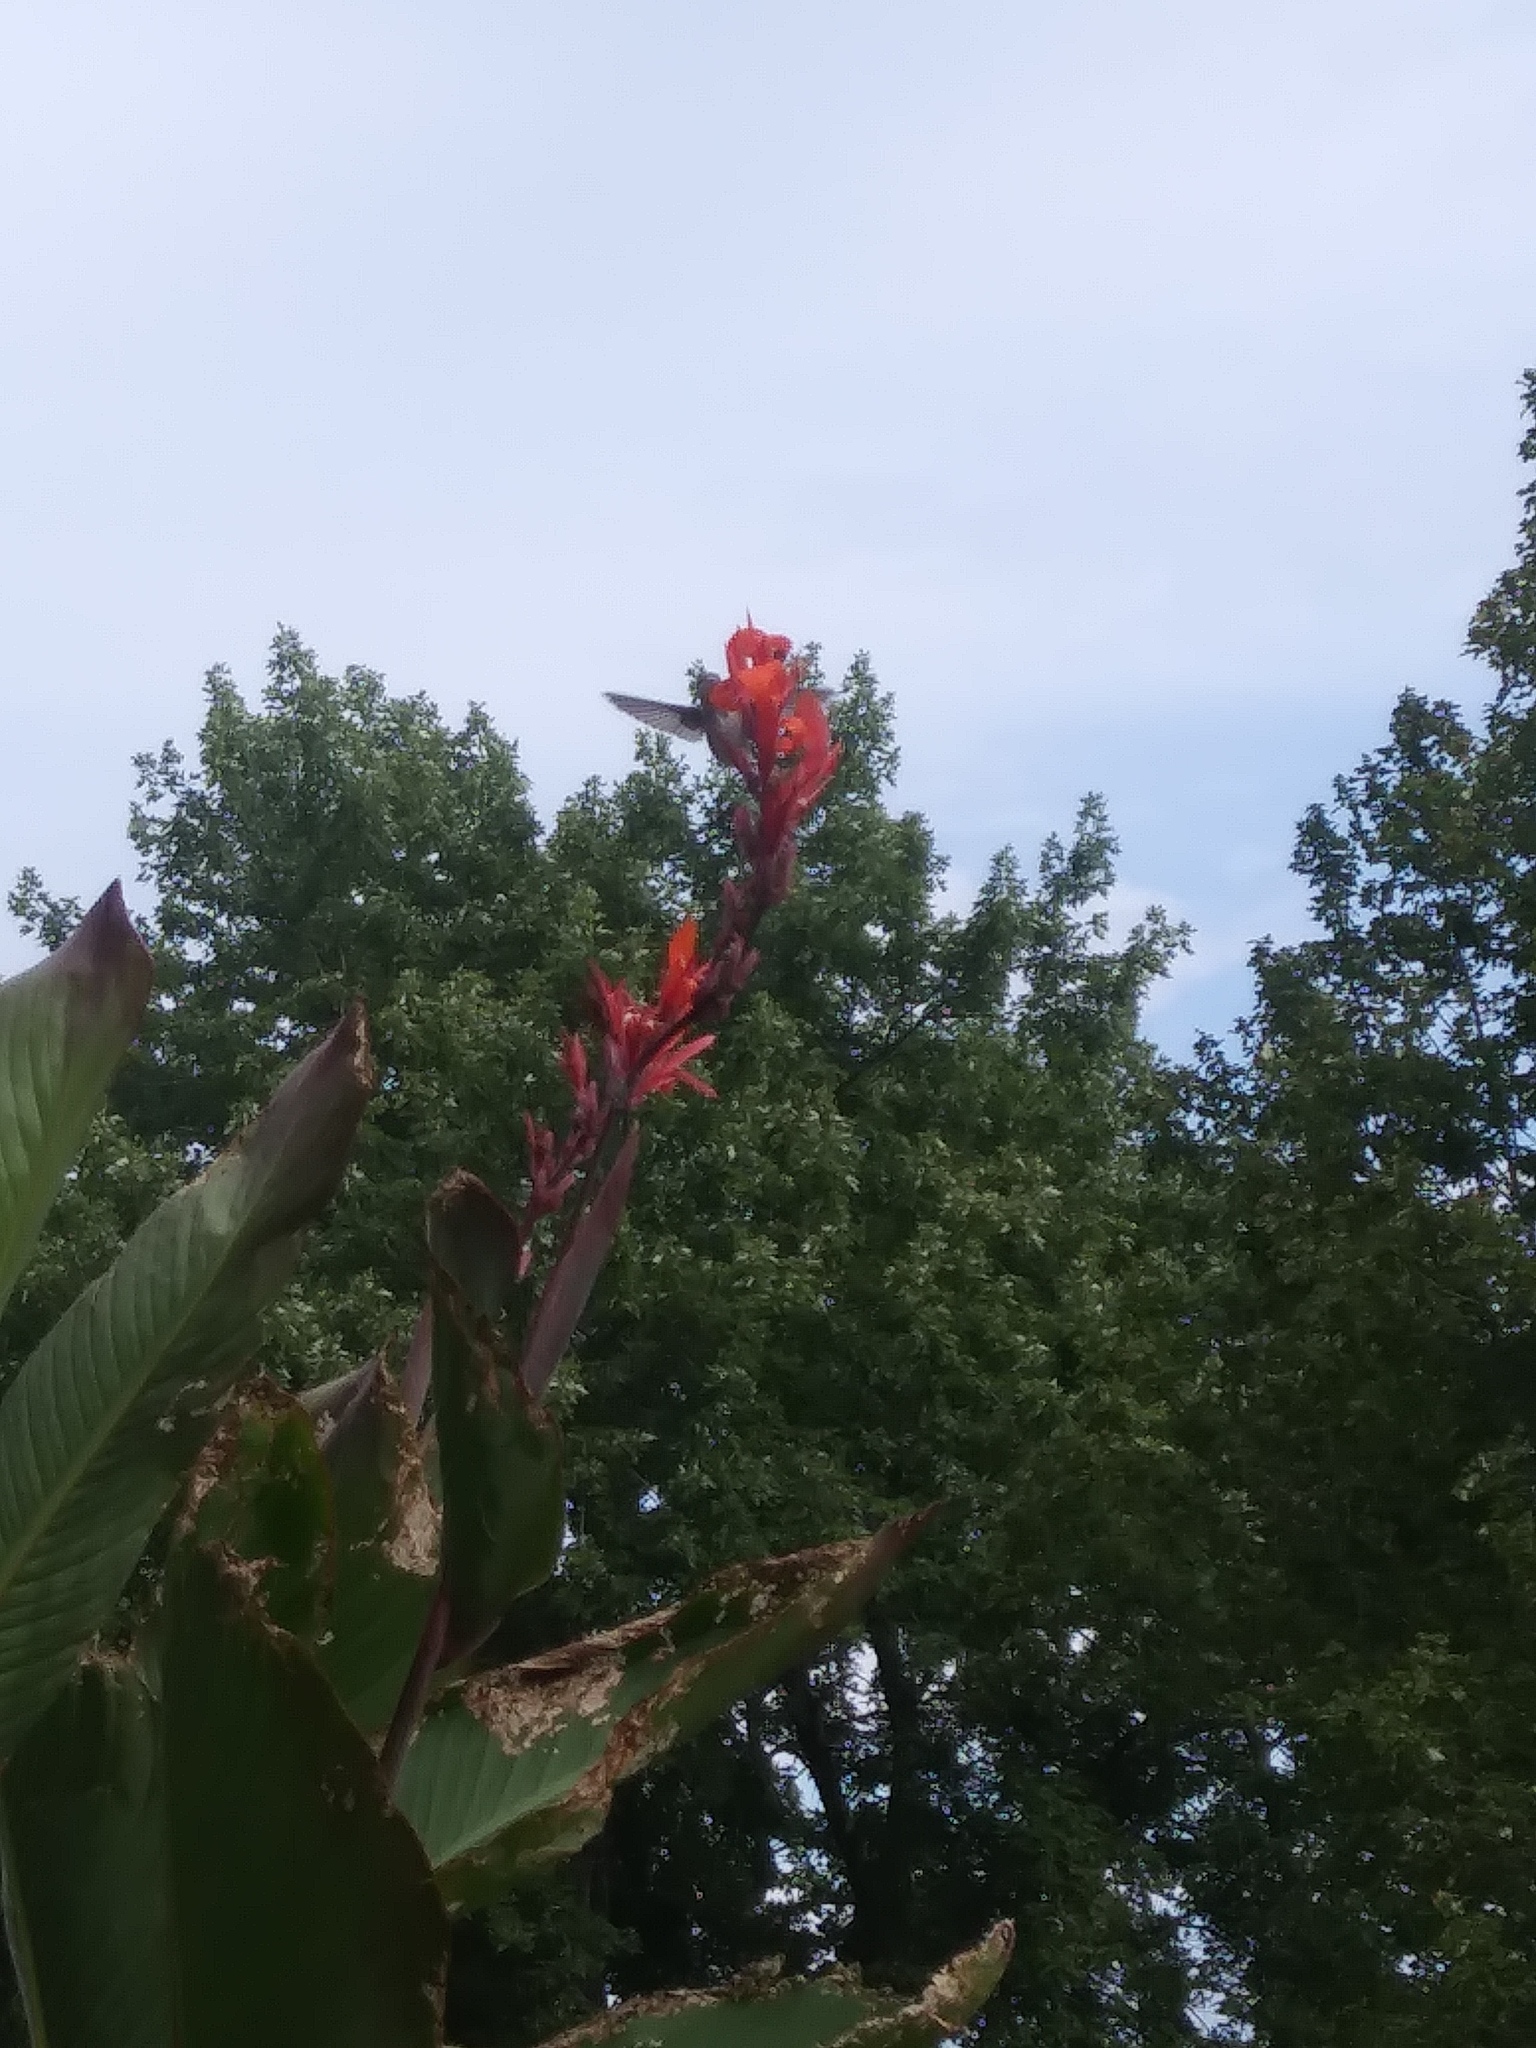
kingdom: Animalia
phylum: Chordata
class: Aves
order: Apodiformes
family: Trochilidae
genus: Archilochus
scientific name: Archilochus colubris
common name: Ruby-throated hummingbird
